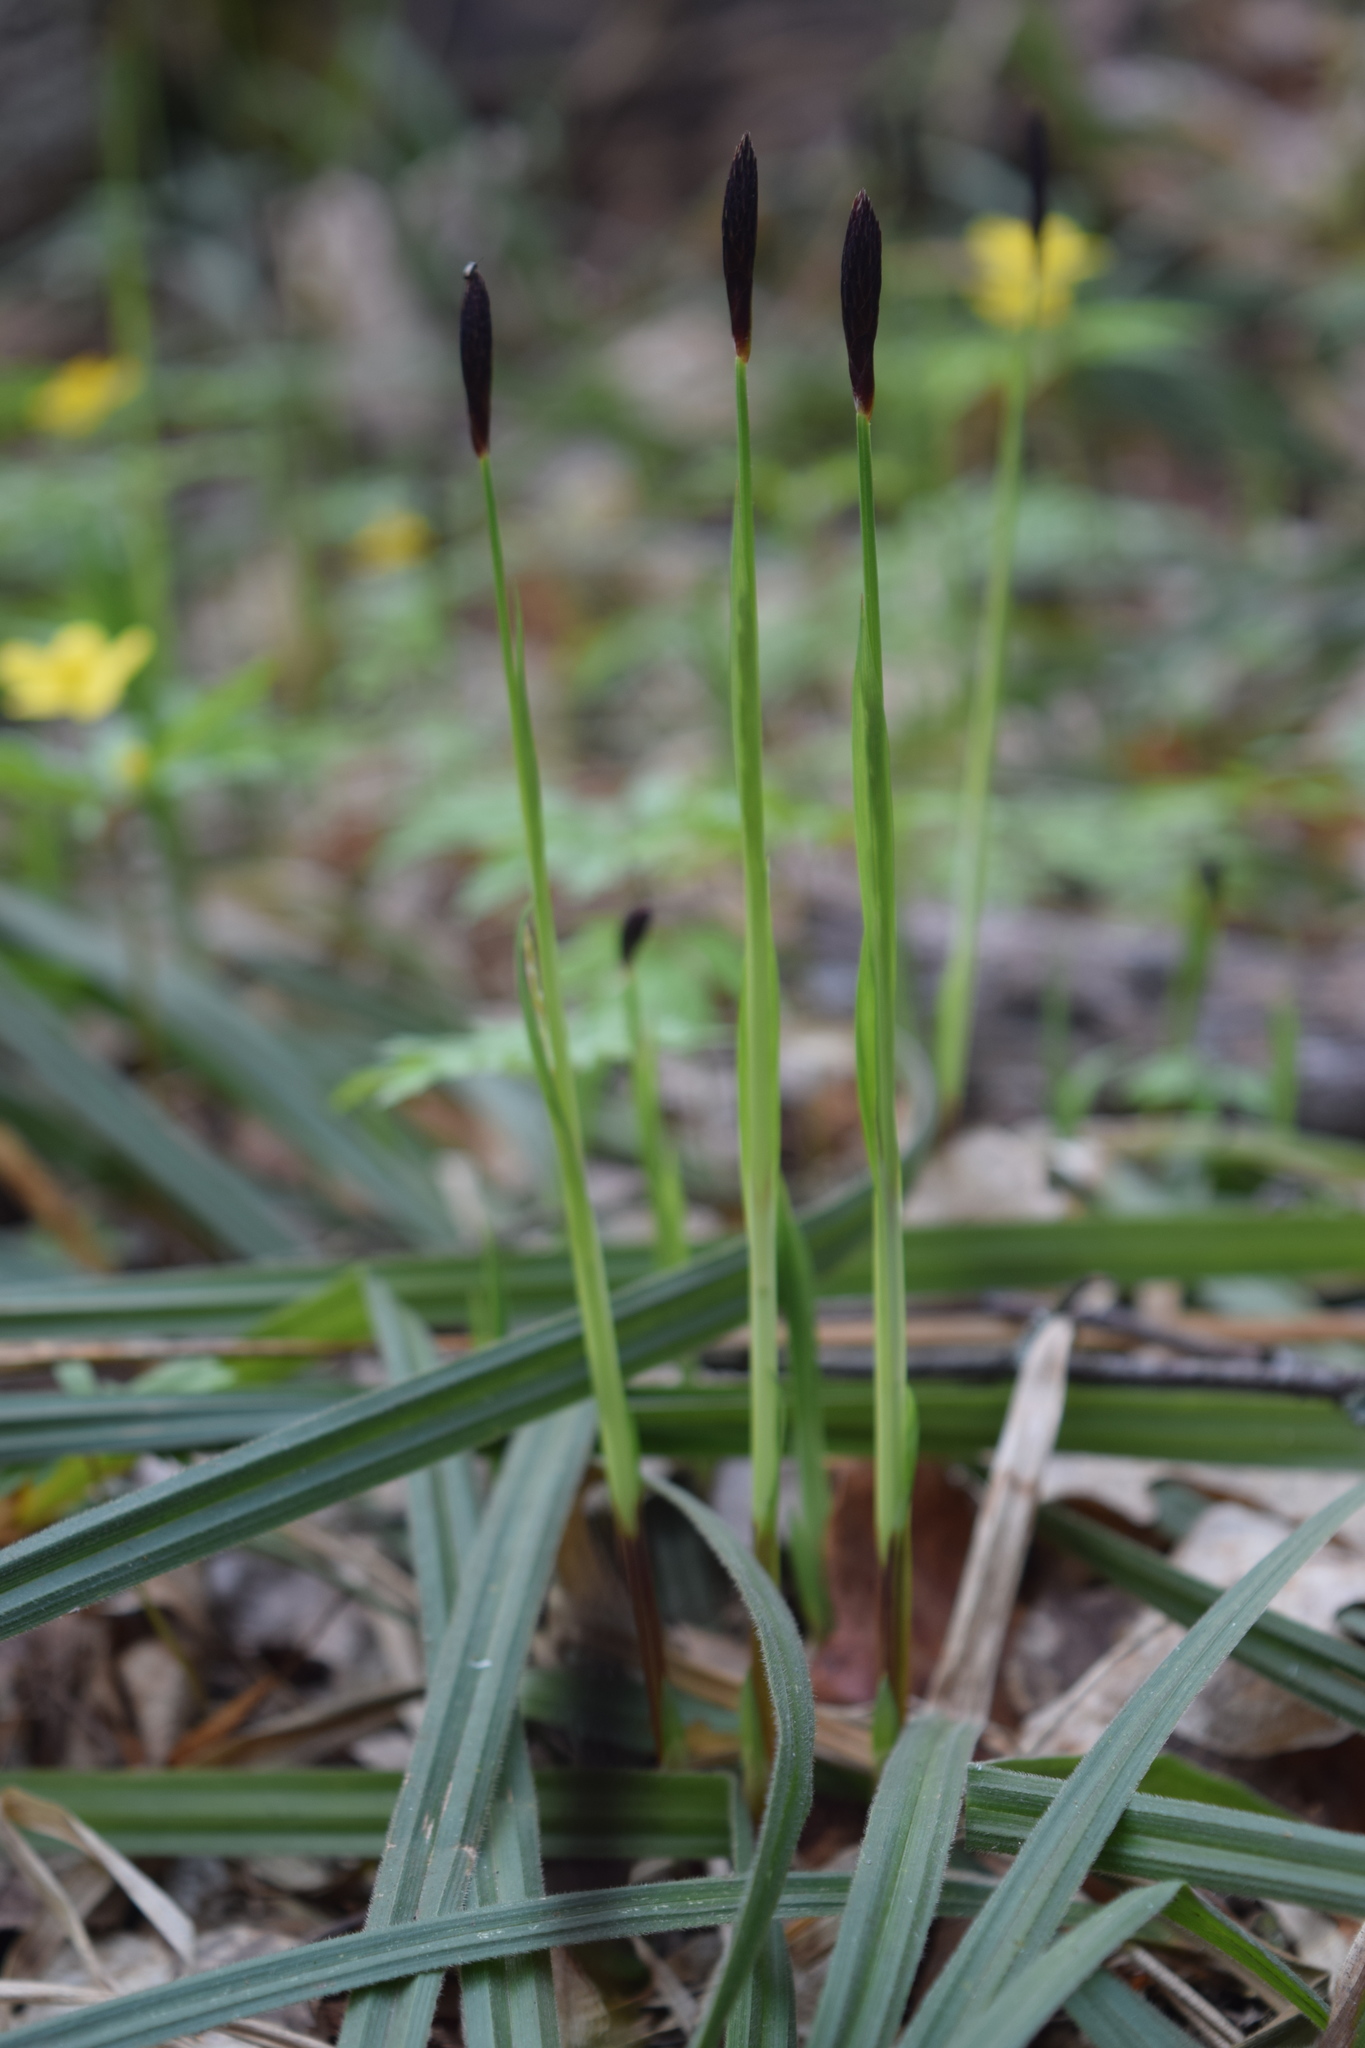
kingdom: Plantae
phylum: Tracheophyta
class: Liliopsida
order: Poales
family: Cyperaceae
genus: Carex
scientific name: Carex pilosa
